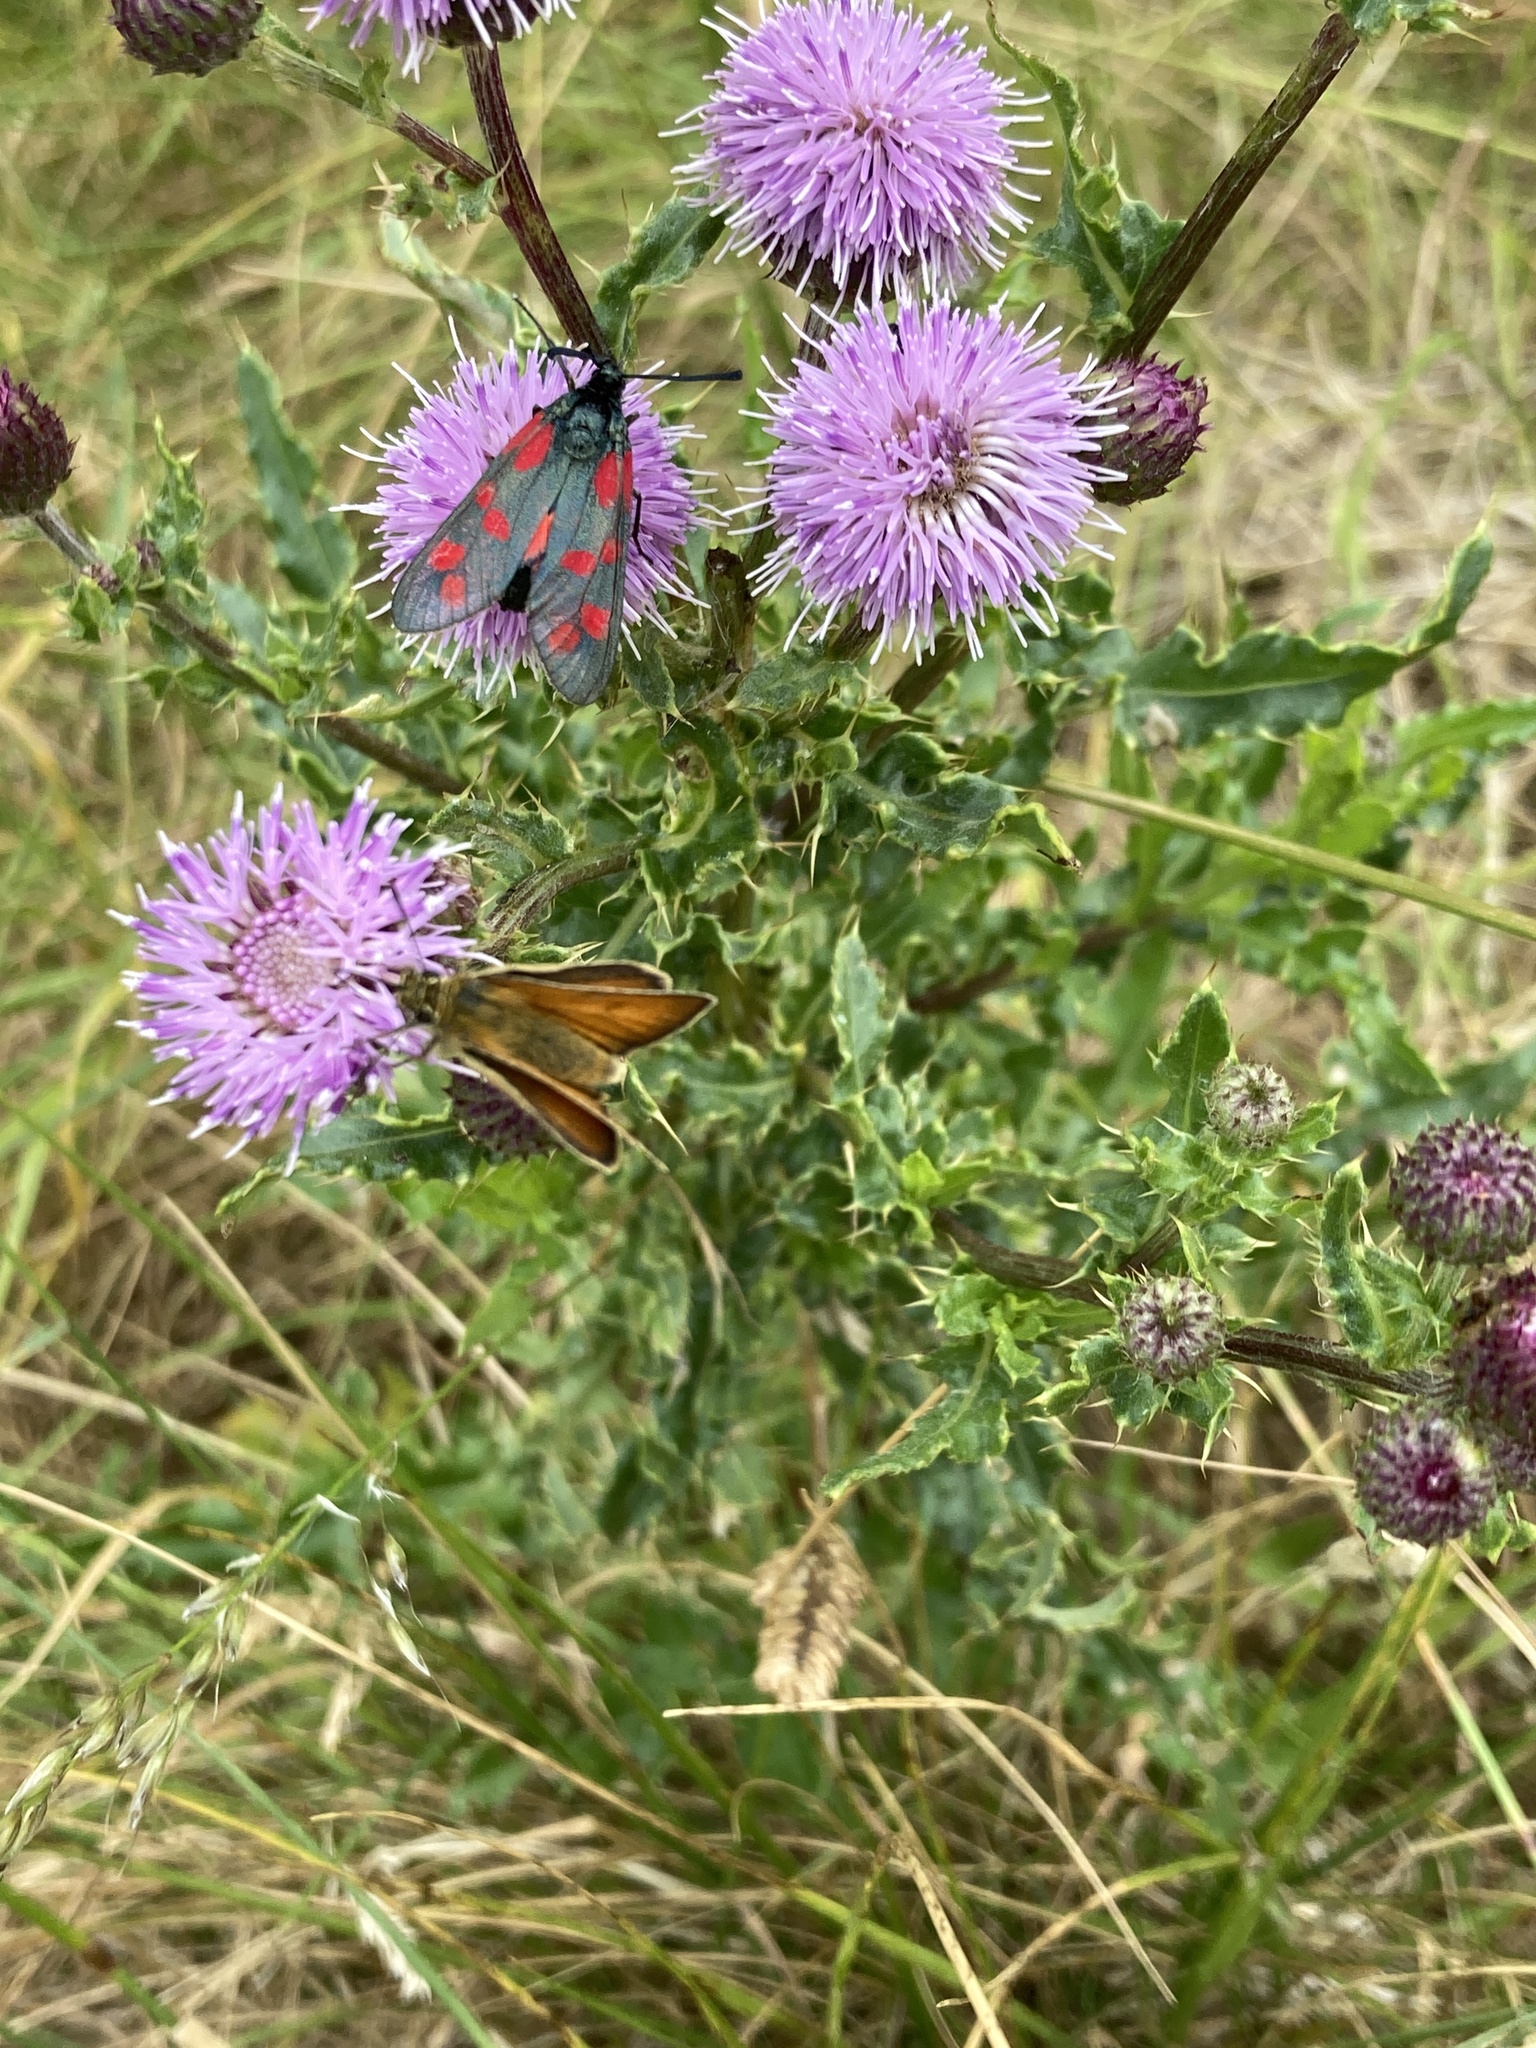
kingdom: Animalia
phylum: Arthropoda
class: Insecta
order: Lepidoptera
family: Hesperiidae
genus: Thymelicus
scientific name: Thymelicus sylvestris
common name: Small skipper
